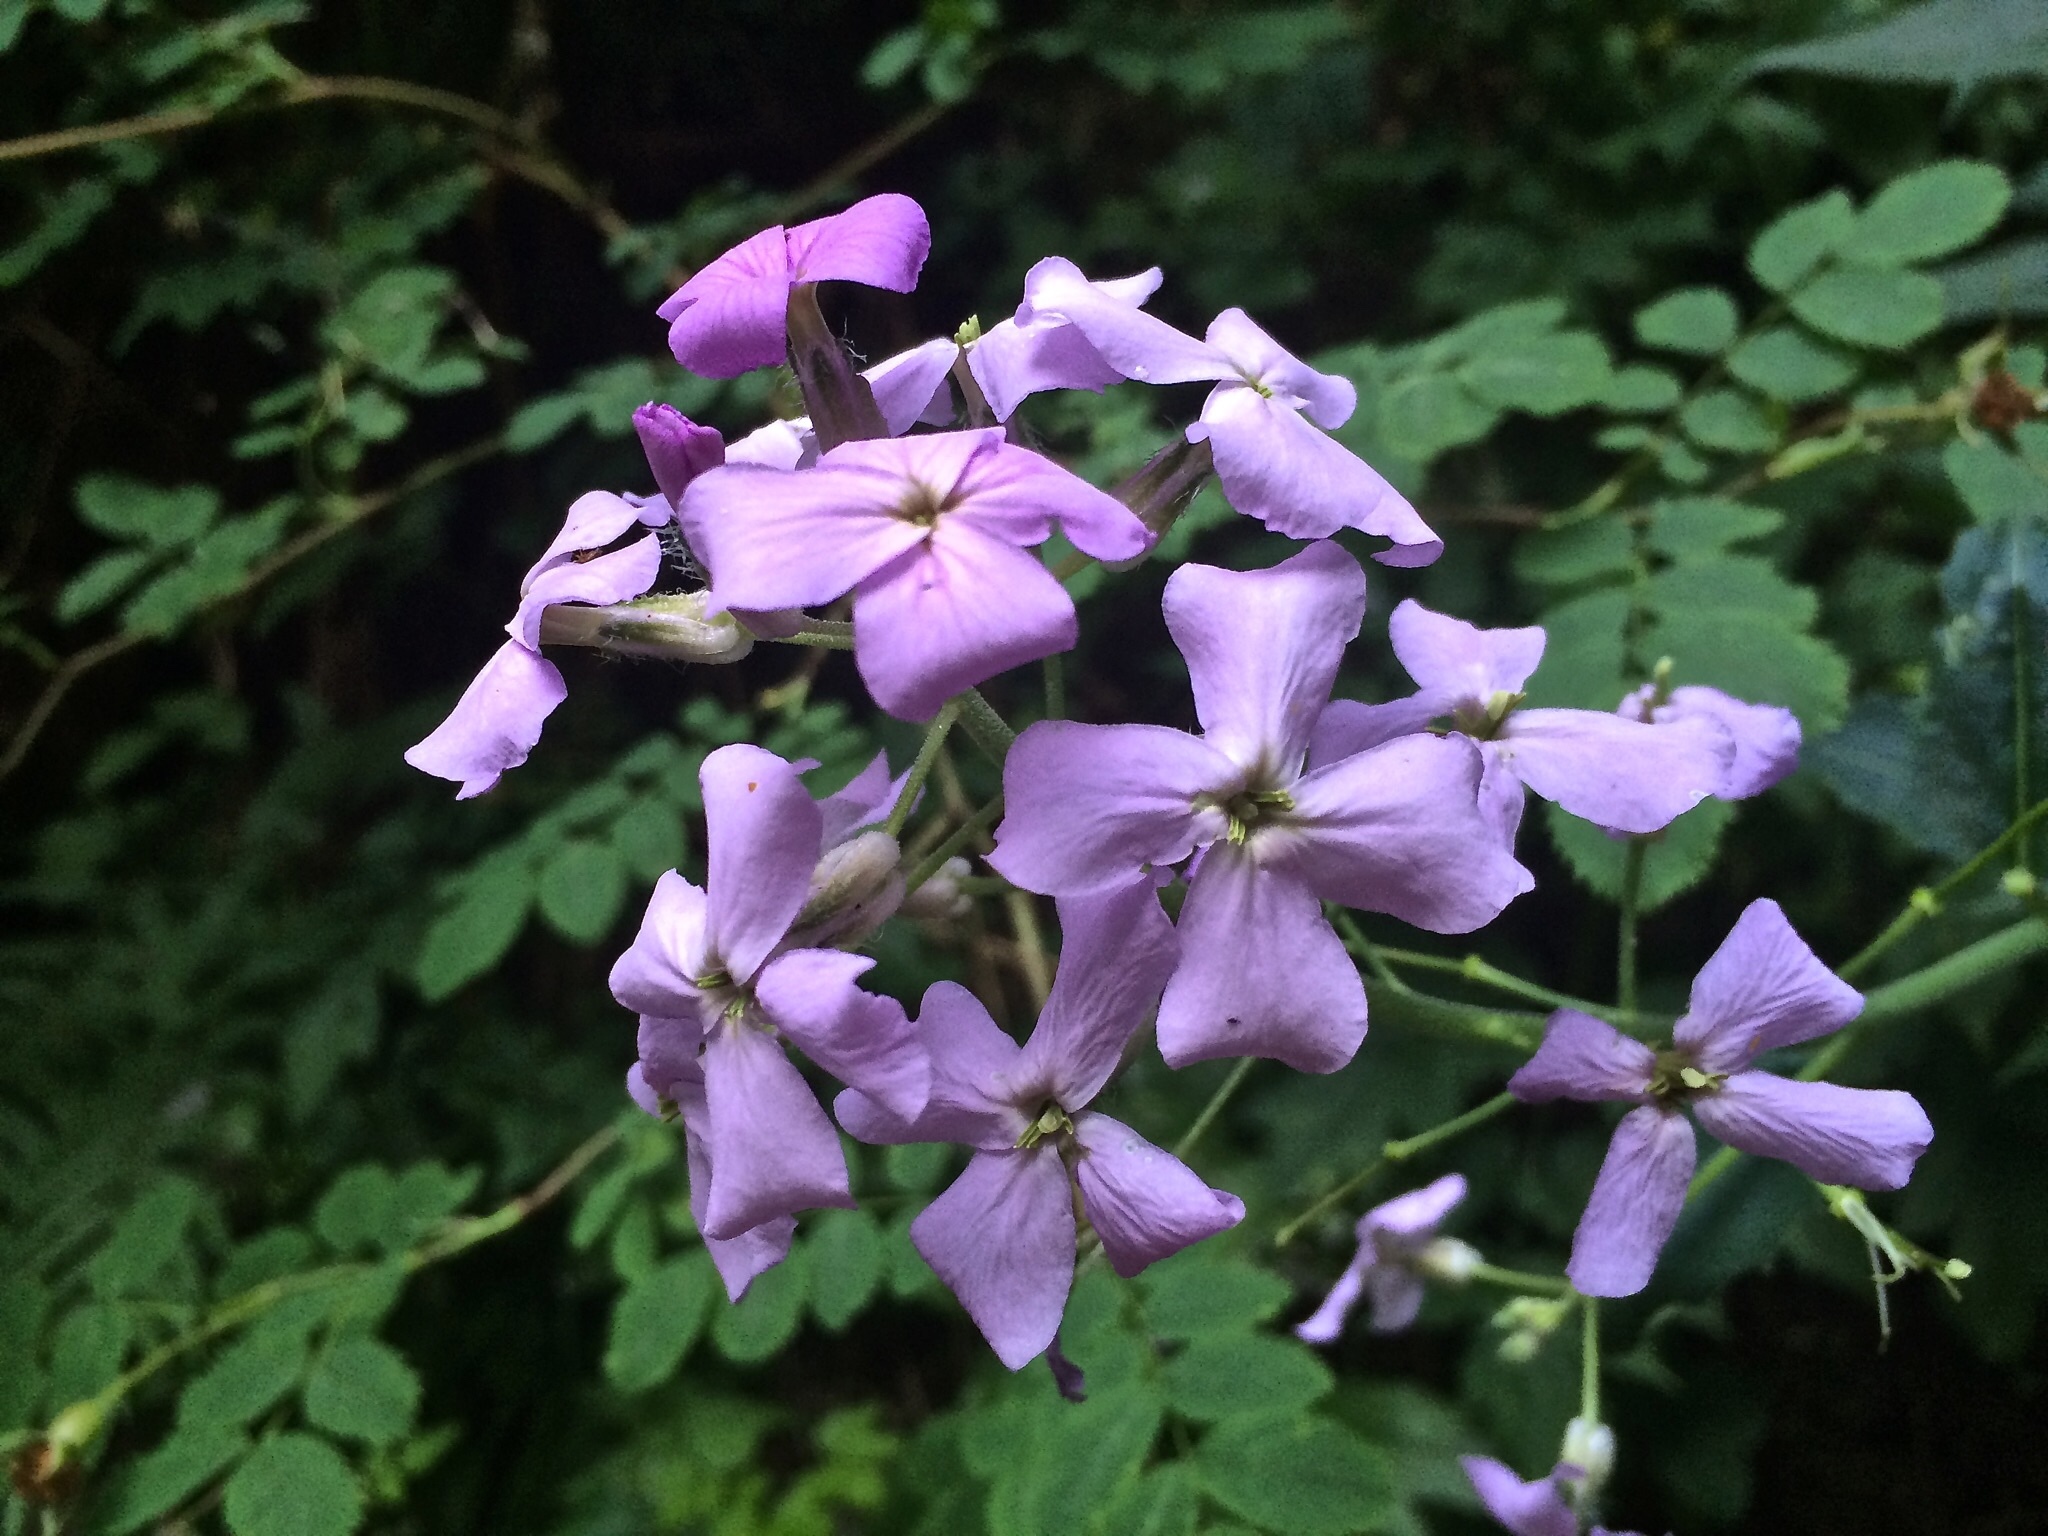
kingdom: Plantae
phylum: Tracheophyta
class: Magnoliopsida
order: Brassicales
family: Brassicaceae
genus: Hesperis
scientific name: Hesperis matronalis
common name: Dame's-violet
